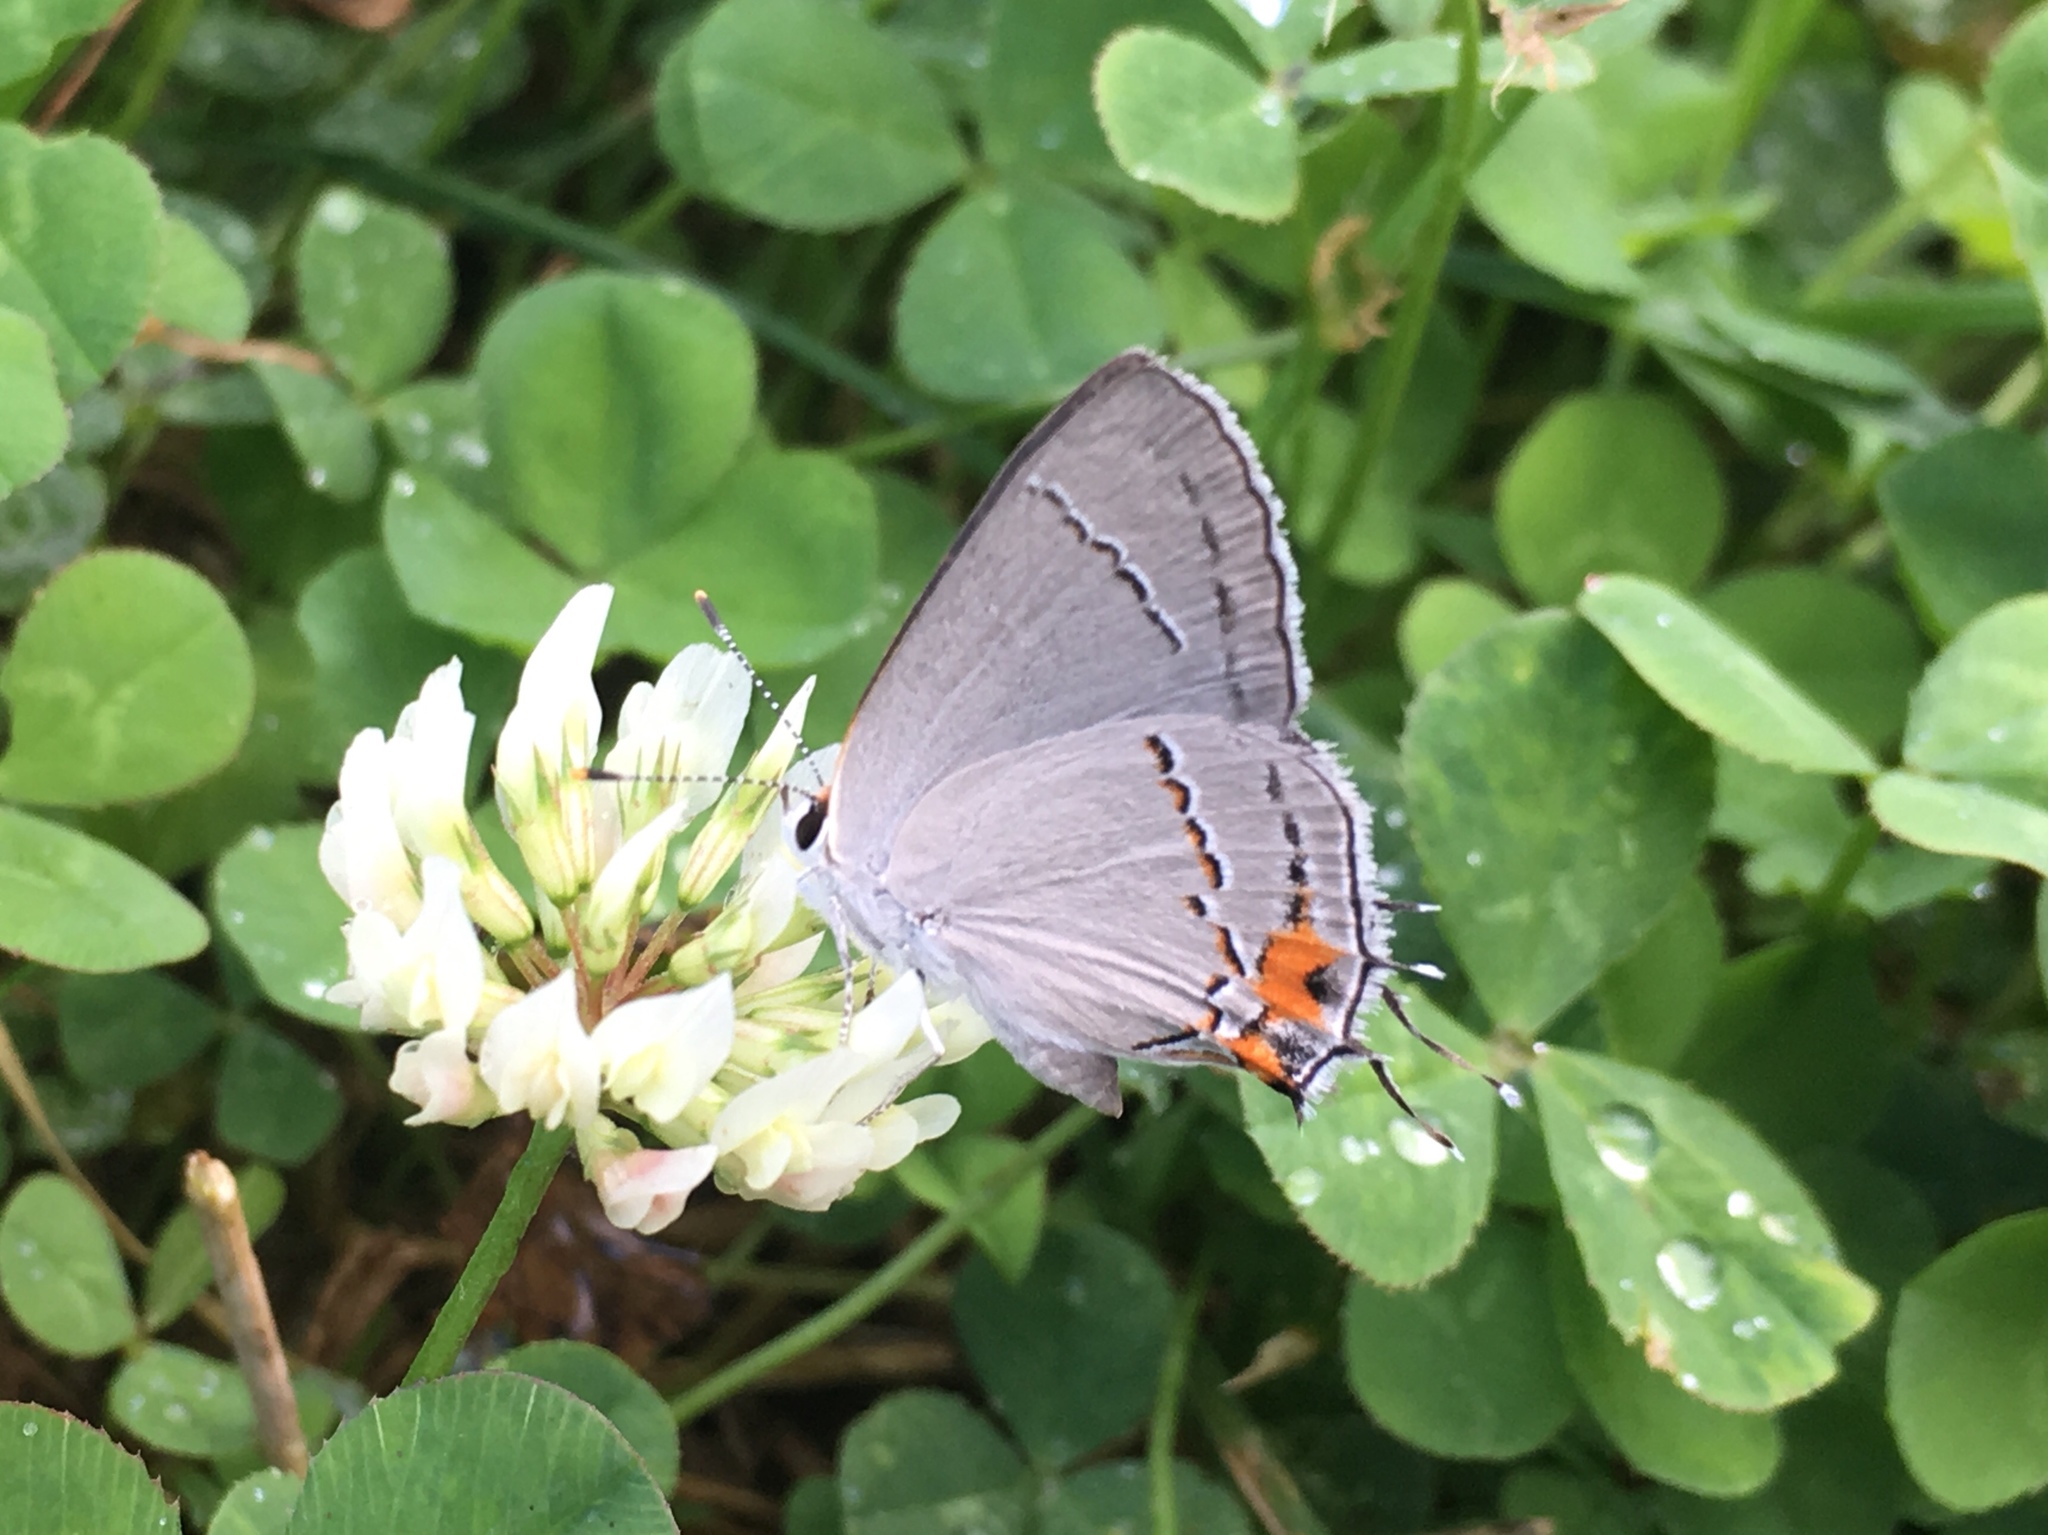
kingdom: Animalia
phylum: Arthropoda
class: Insecta
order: Lepidoptera
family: Lycaenidae
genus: Strymon
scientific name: Strymon melinus
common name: Gray hairstreak
